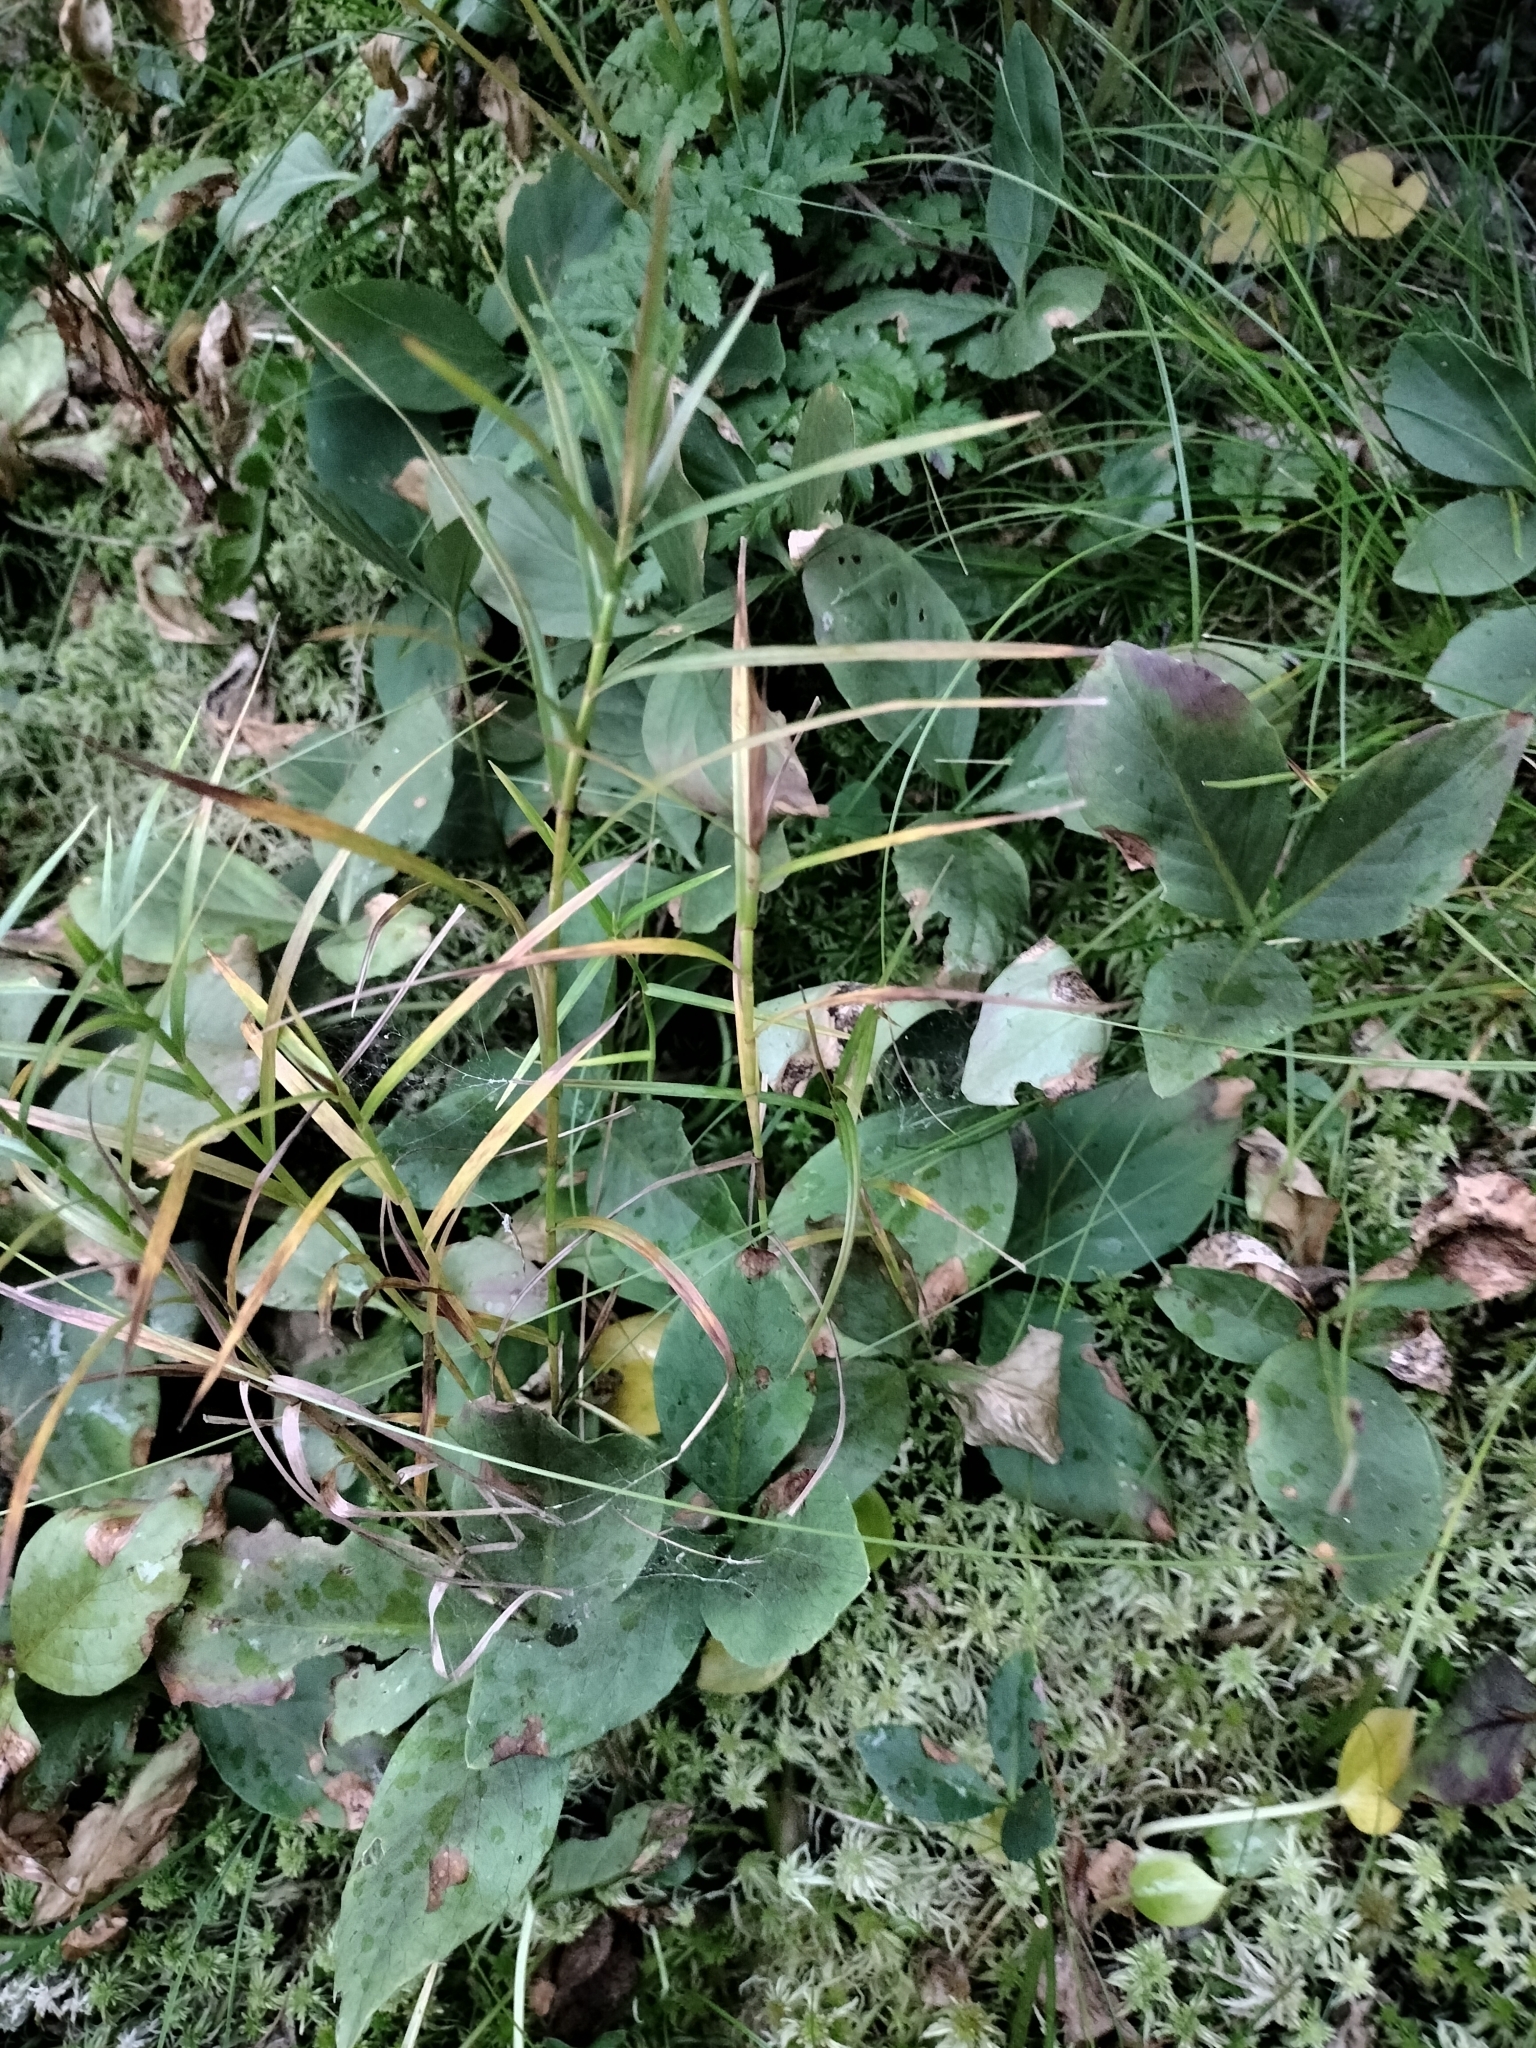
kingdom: Plantae
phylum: Tracheophyta
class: Magnoliopsida
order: Asterales
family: Menyanthaceae
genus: Menyanthes
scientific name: Menyanthes trifoliata
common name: Bogbean
